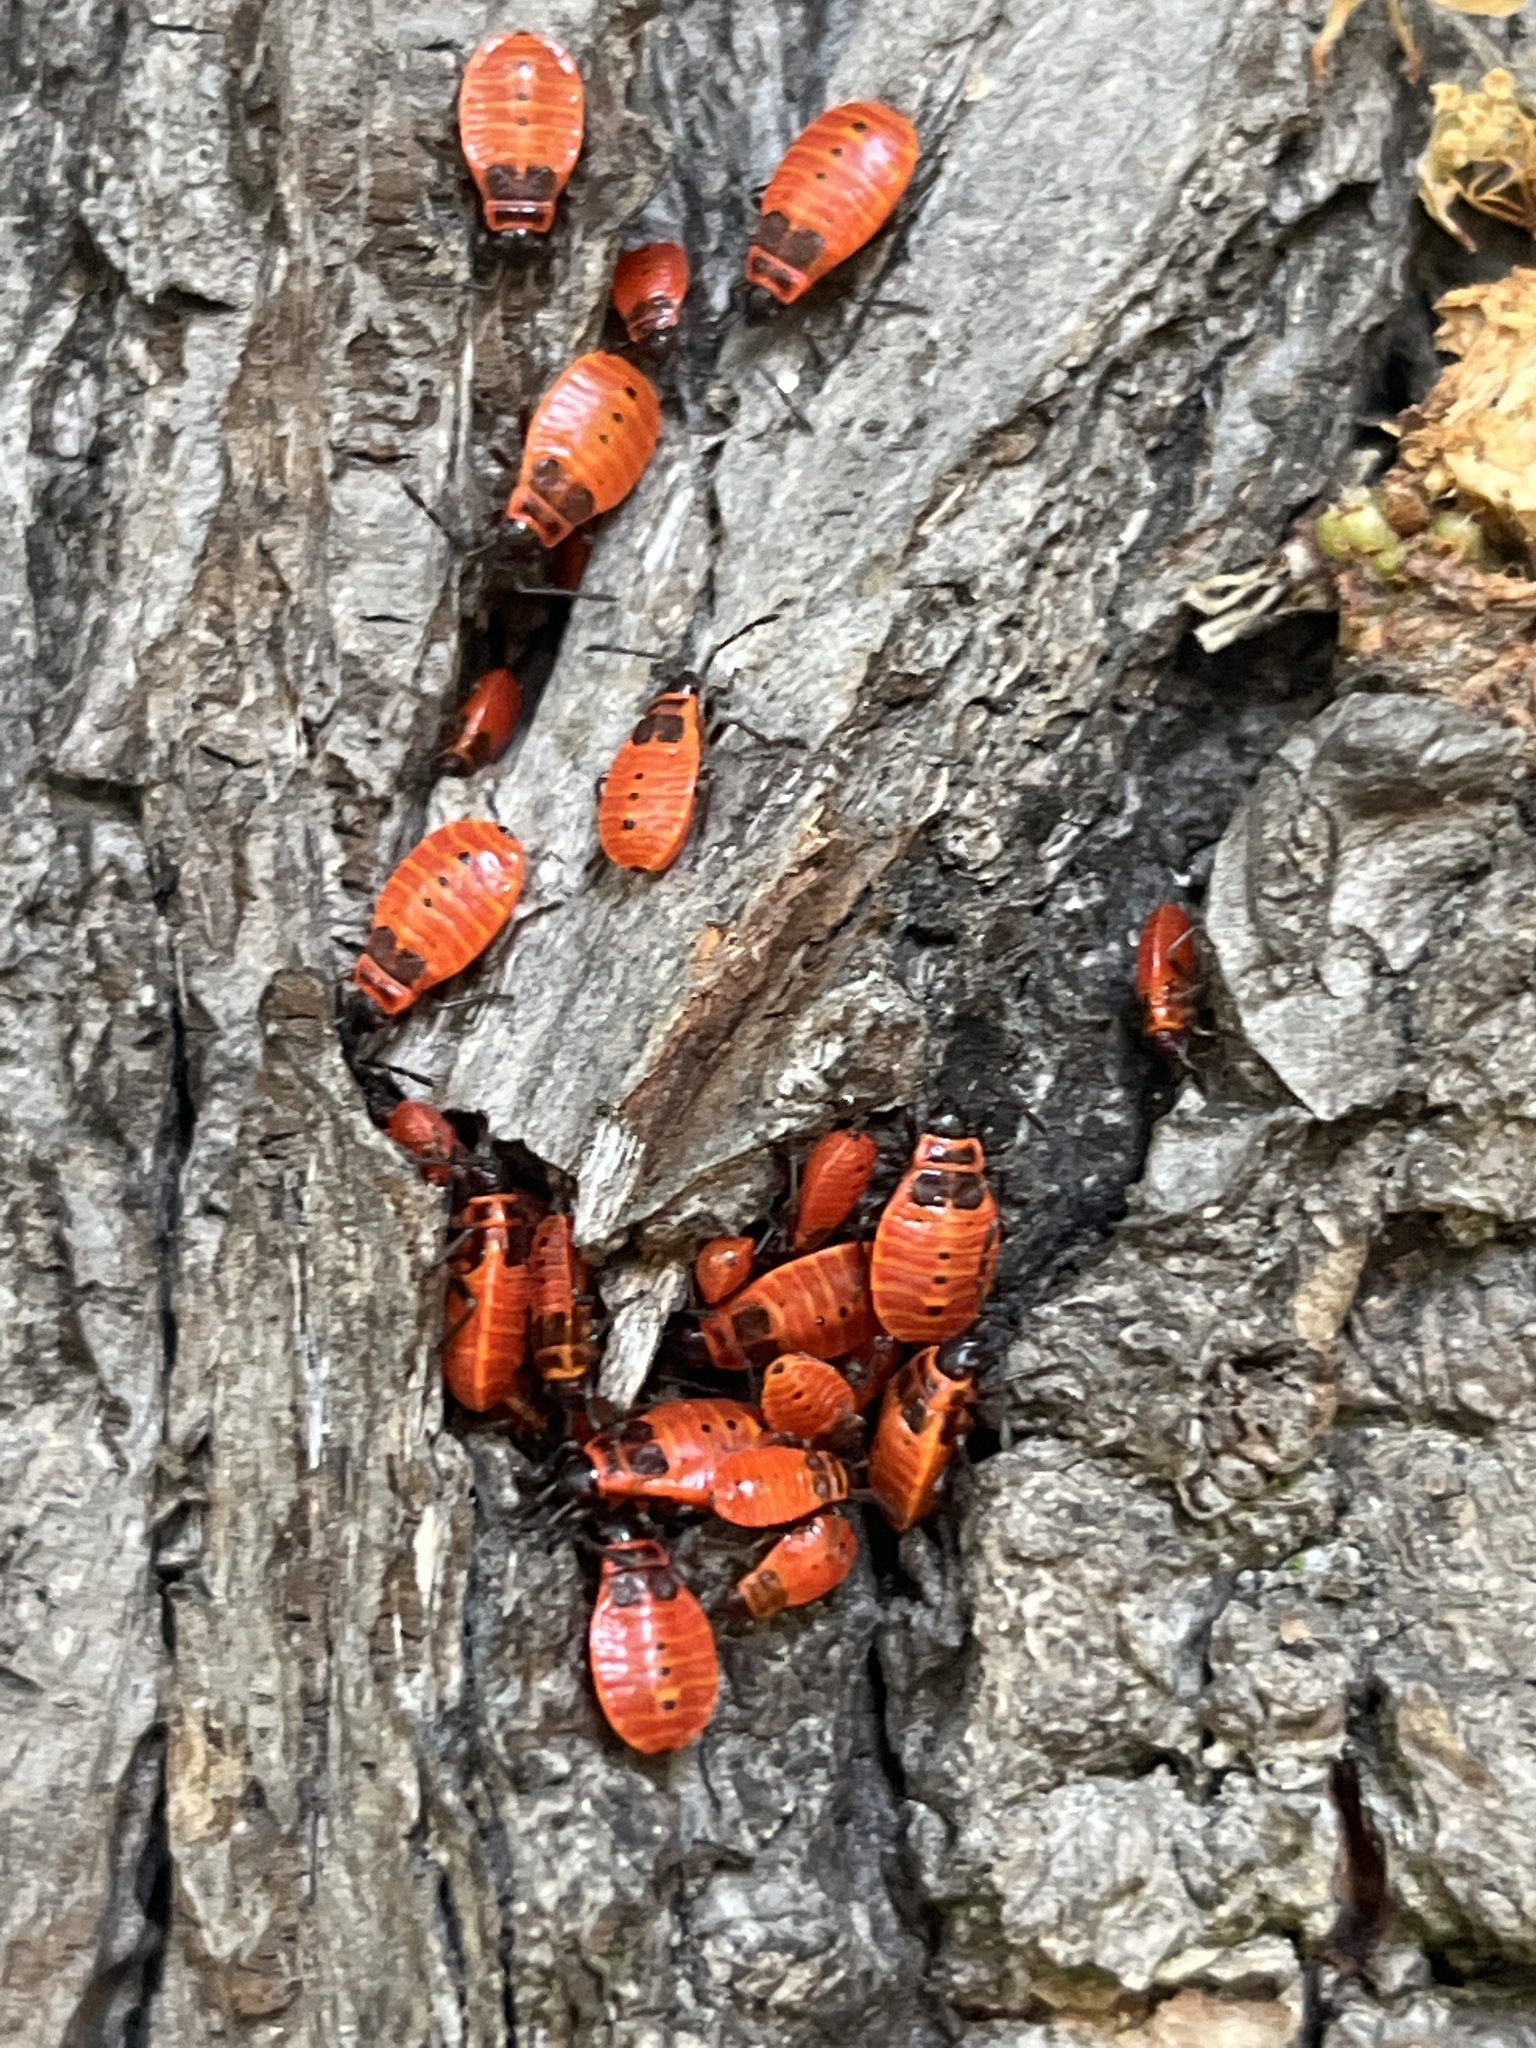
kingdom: Animalia
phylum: Arthropoda
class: Insecta
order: Hemiptera
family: Pyrrhocoridae
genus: Pyrrhocoris
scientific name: Pyrrhocoris apterus
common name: Firebug
